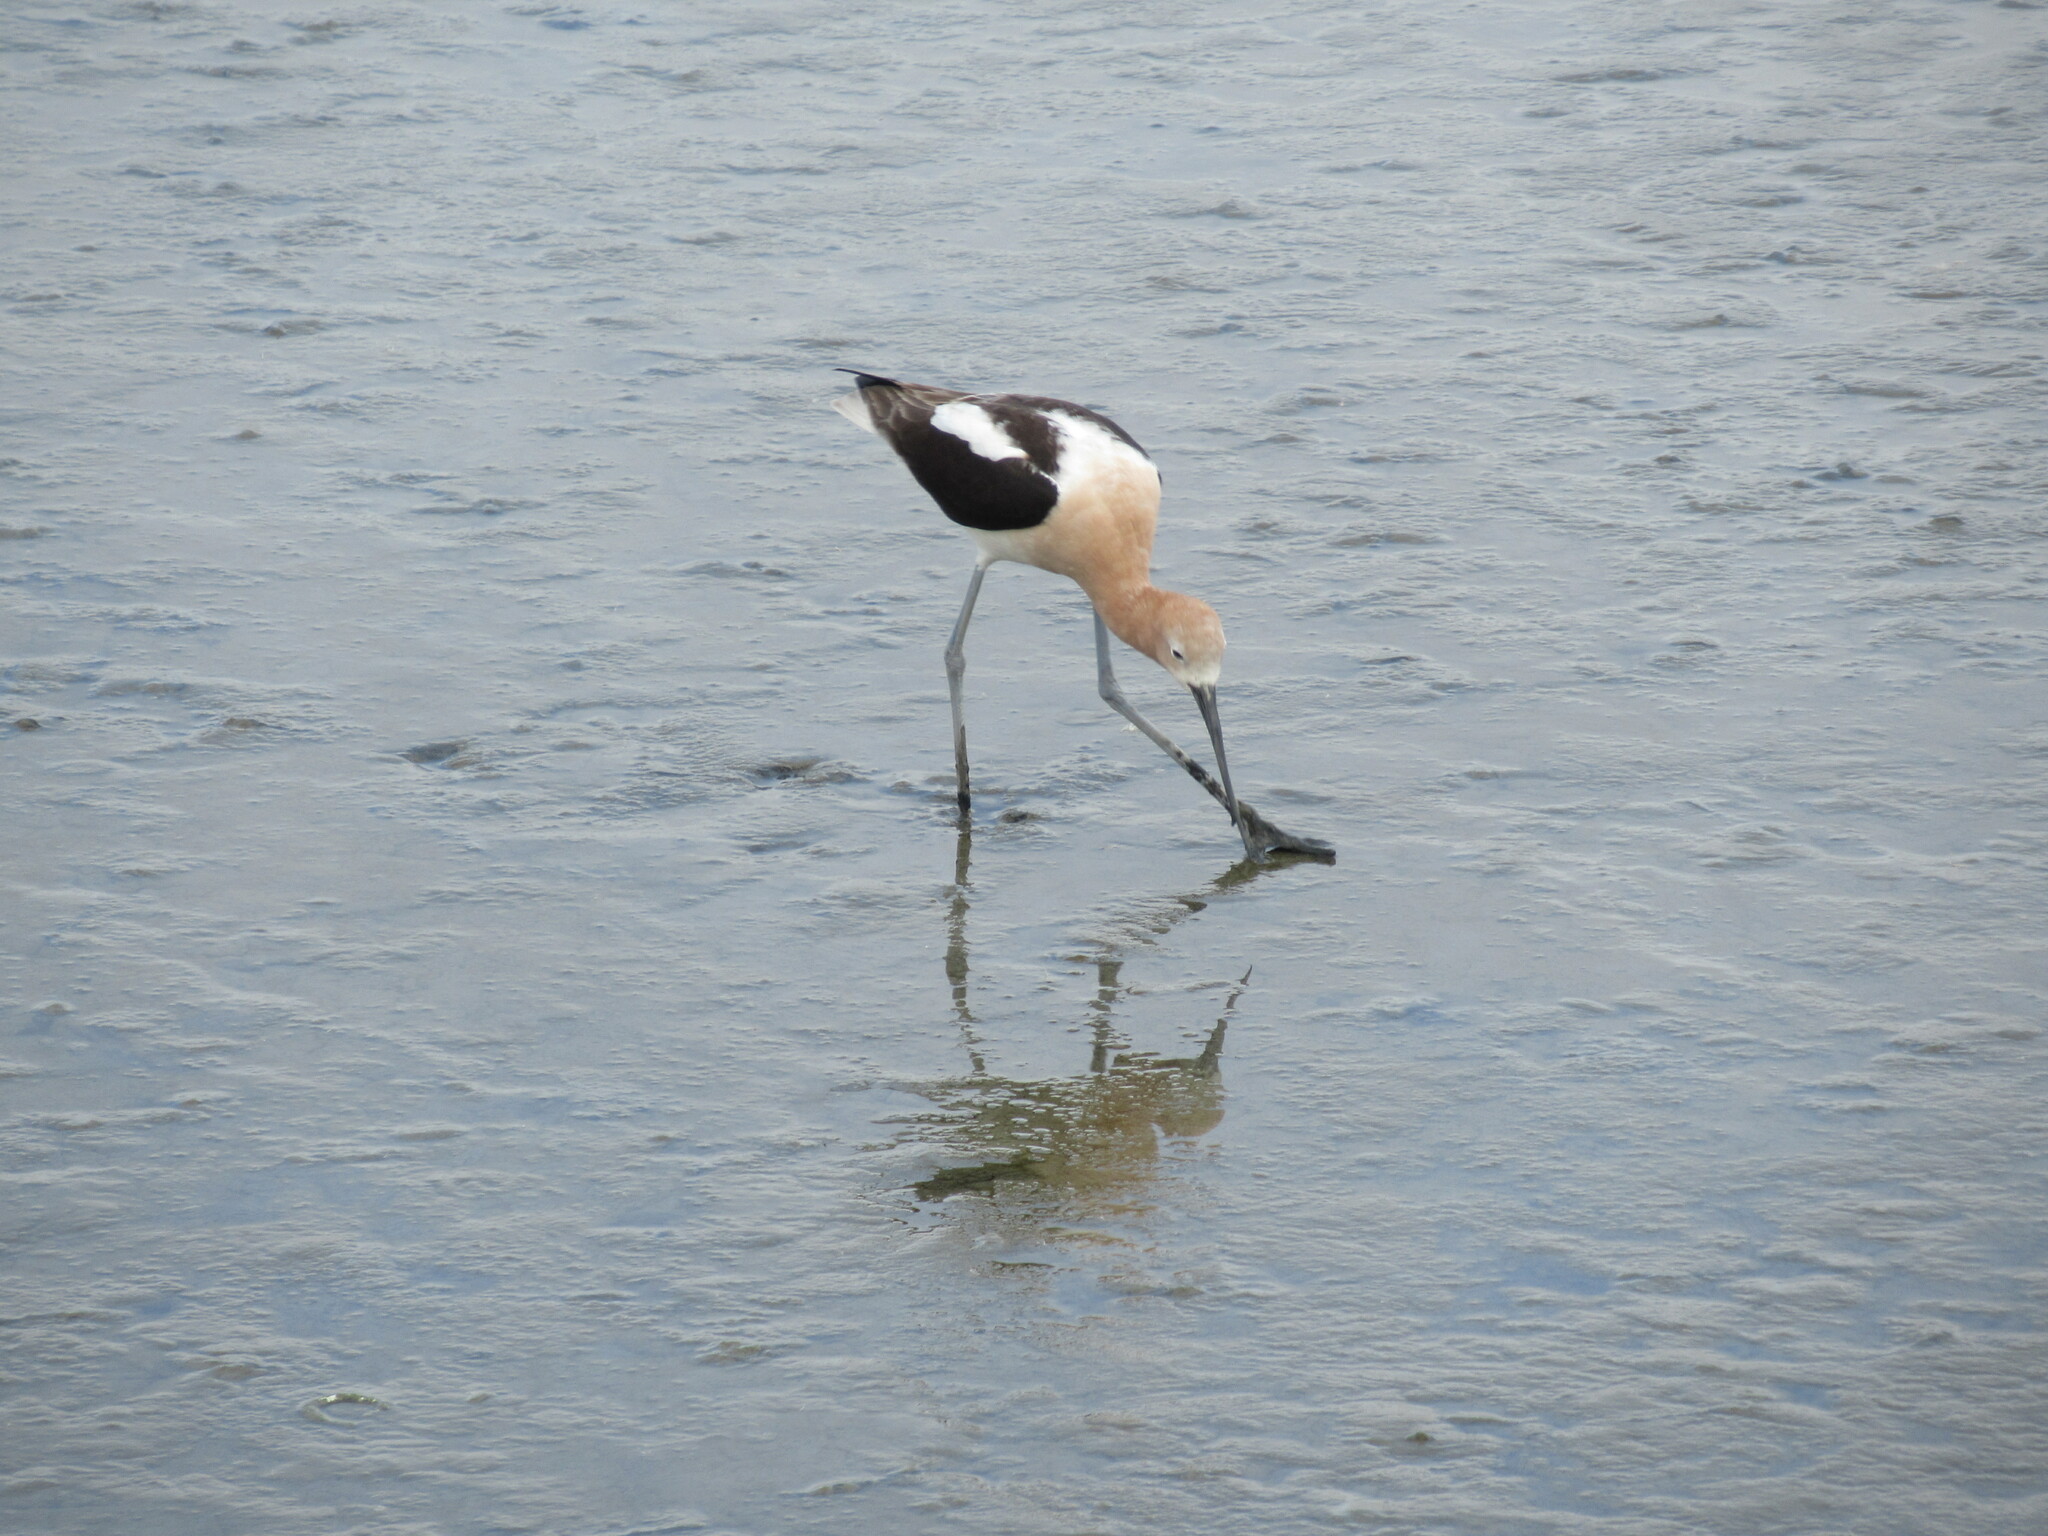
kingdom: Animalia
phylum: Chordata
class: Aves
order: Charadriiformes
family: Recurvirostridae
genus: Recurvirostra
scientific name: Recurvirostra americana
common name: American avocet
